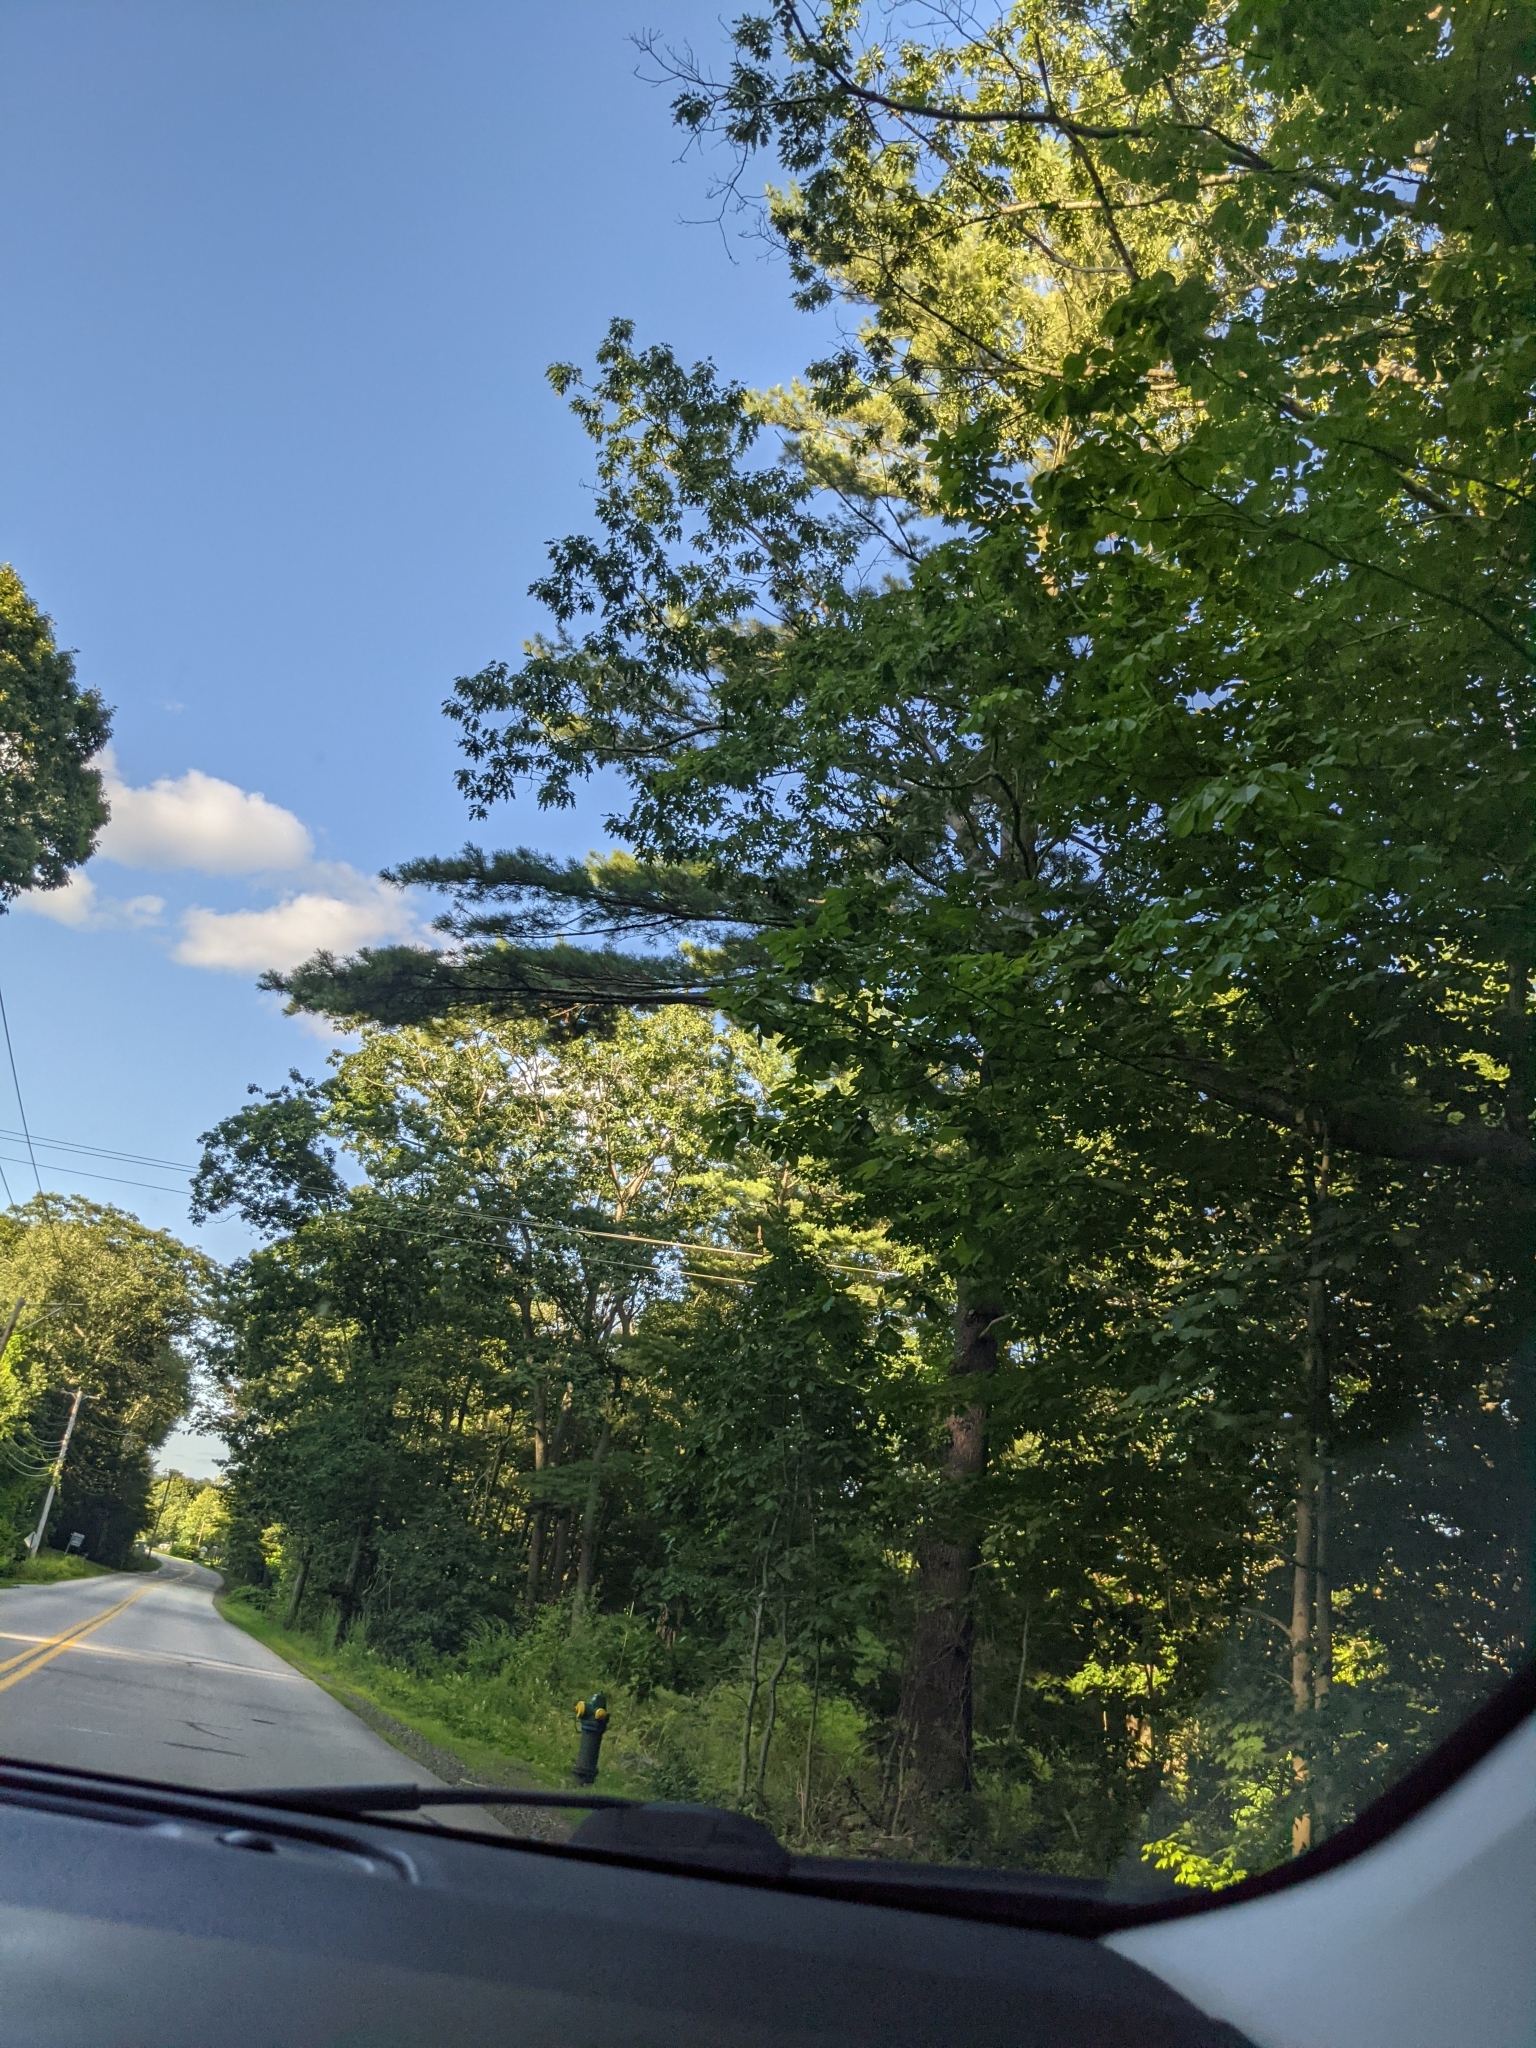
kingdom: Plantae
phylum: Tracheophyta
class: Pinopsida
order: Pinales
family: Pinaceae
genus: Pinus
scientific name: Pinus strobus
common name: Weymouth pine
